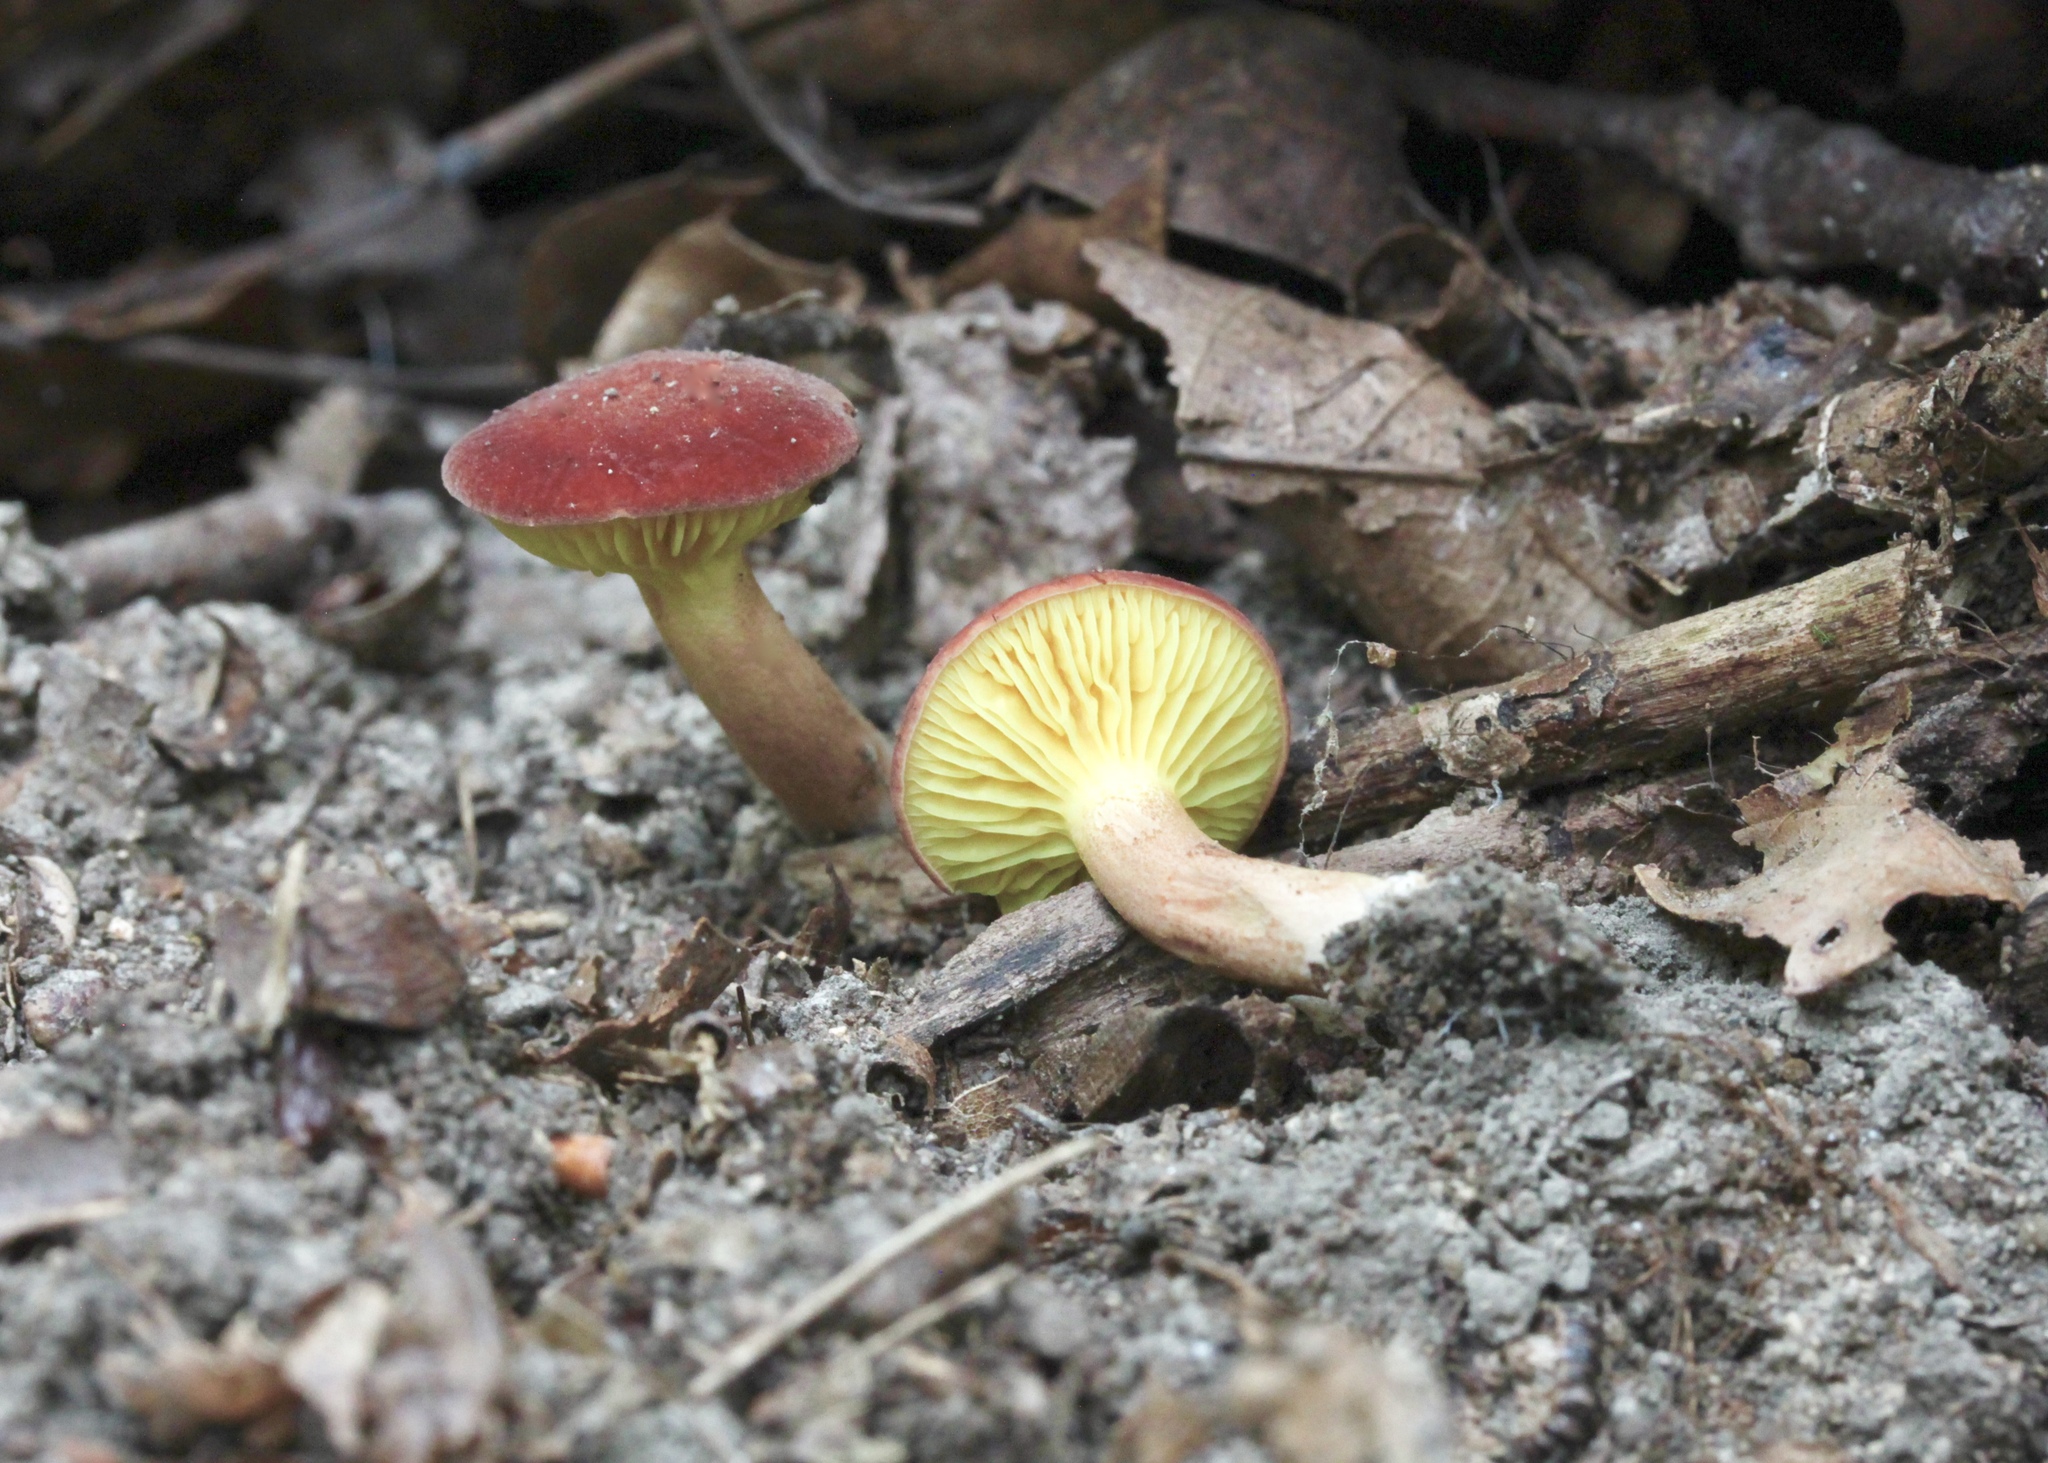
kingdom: Fungi
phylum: Basidiomycota
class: Agaricomycetes
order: Boletales
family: Boletaceae
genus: Phylloporus
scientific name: Phylloporus leucomycelinus
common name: Gilled bolete
